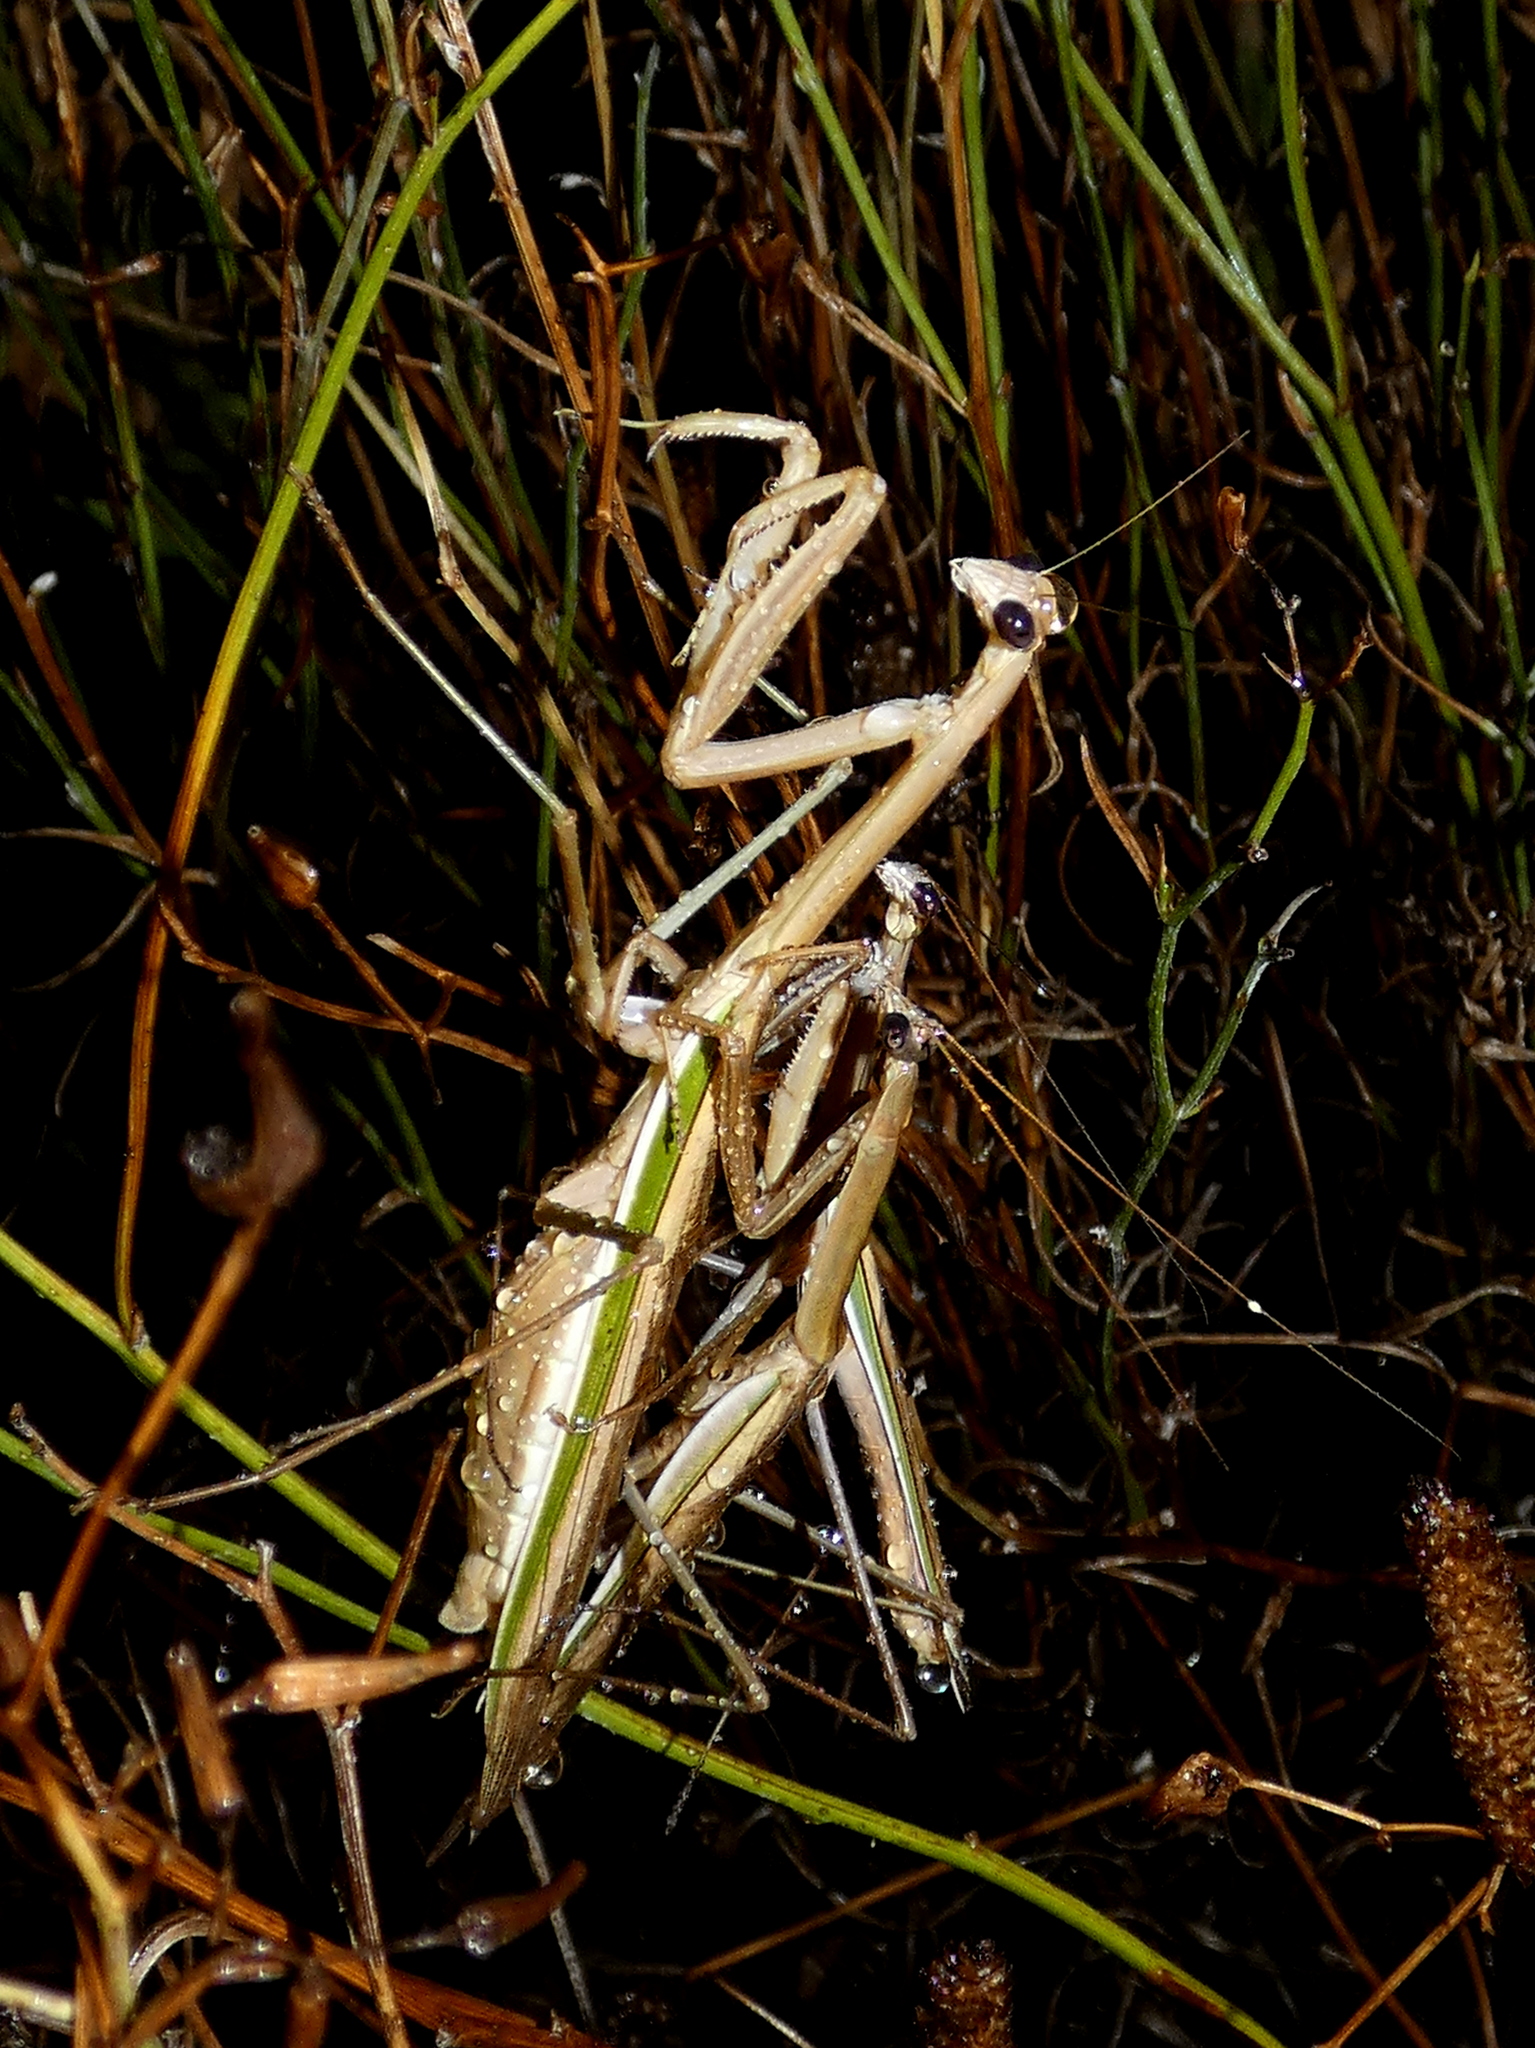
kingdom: Animalia
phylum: Arthropoda
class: Insecta
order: Mantodea
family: Mantidae
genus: Tenodera
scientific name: Tenodera australasiae
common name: Purple-winged mantis
